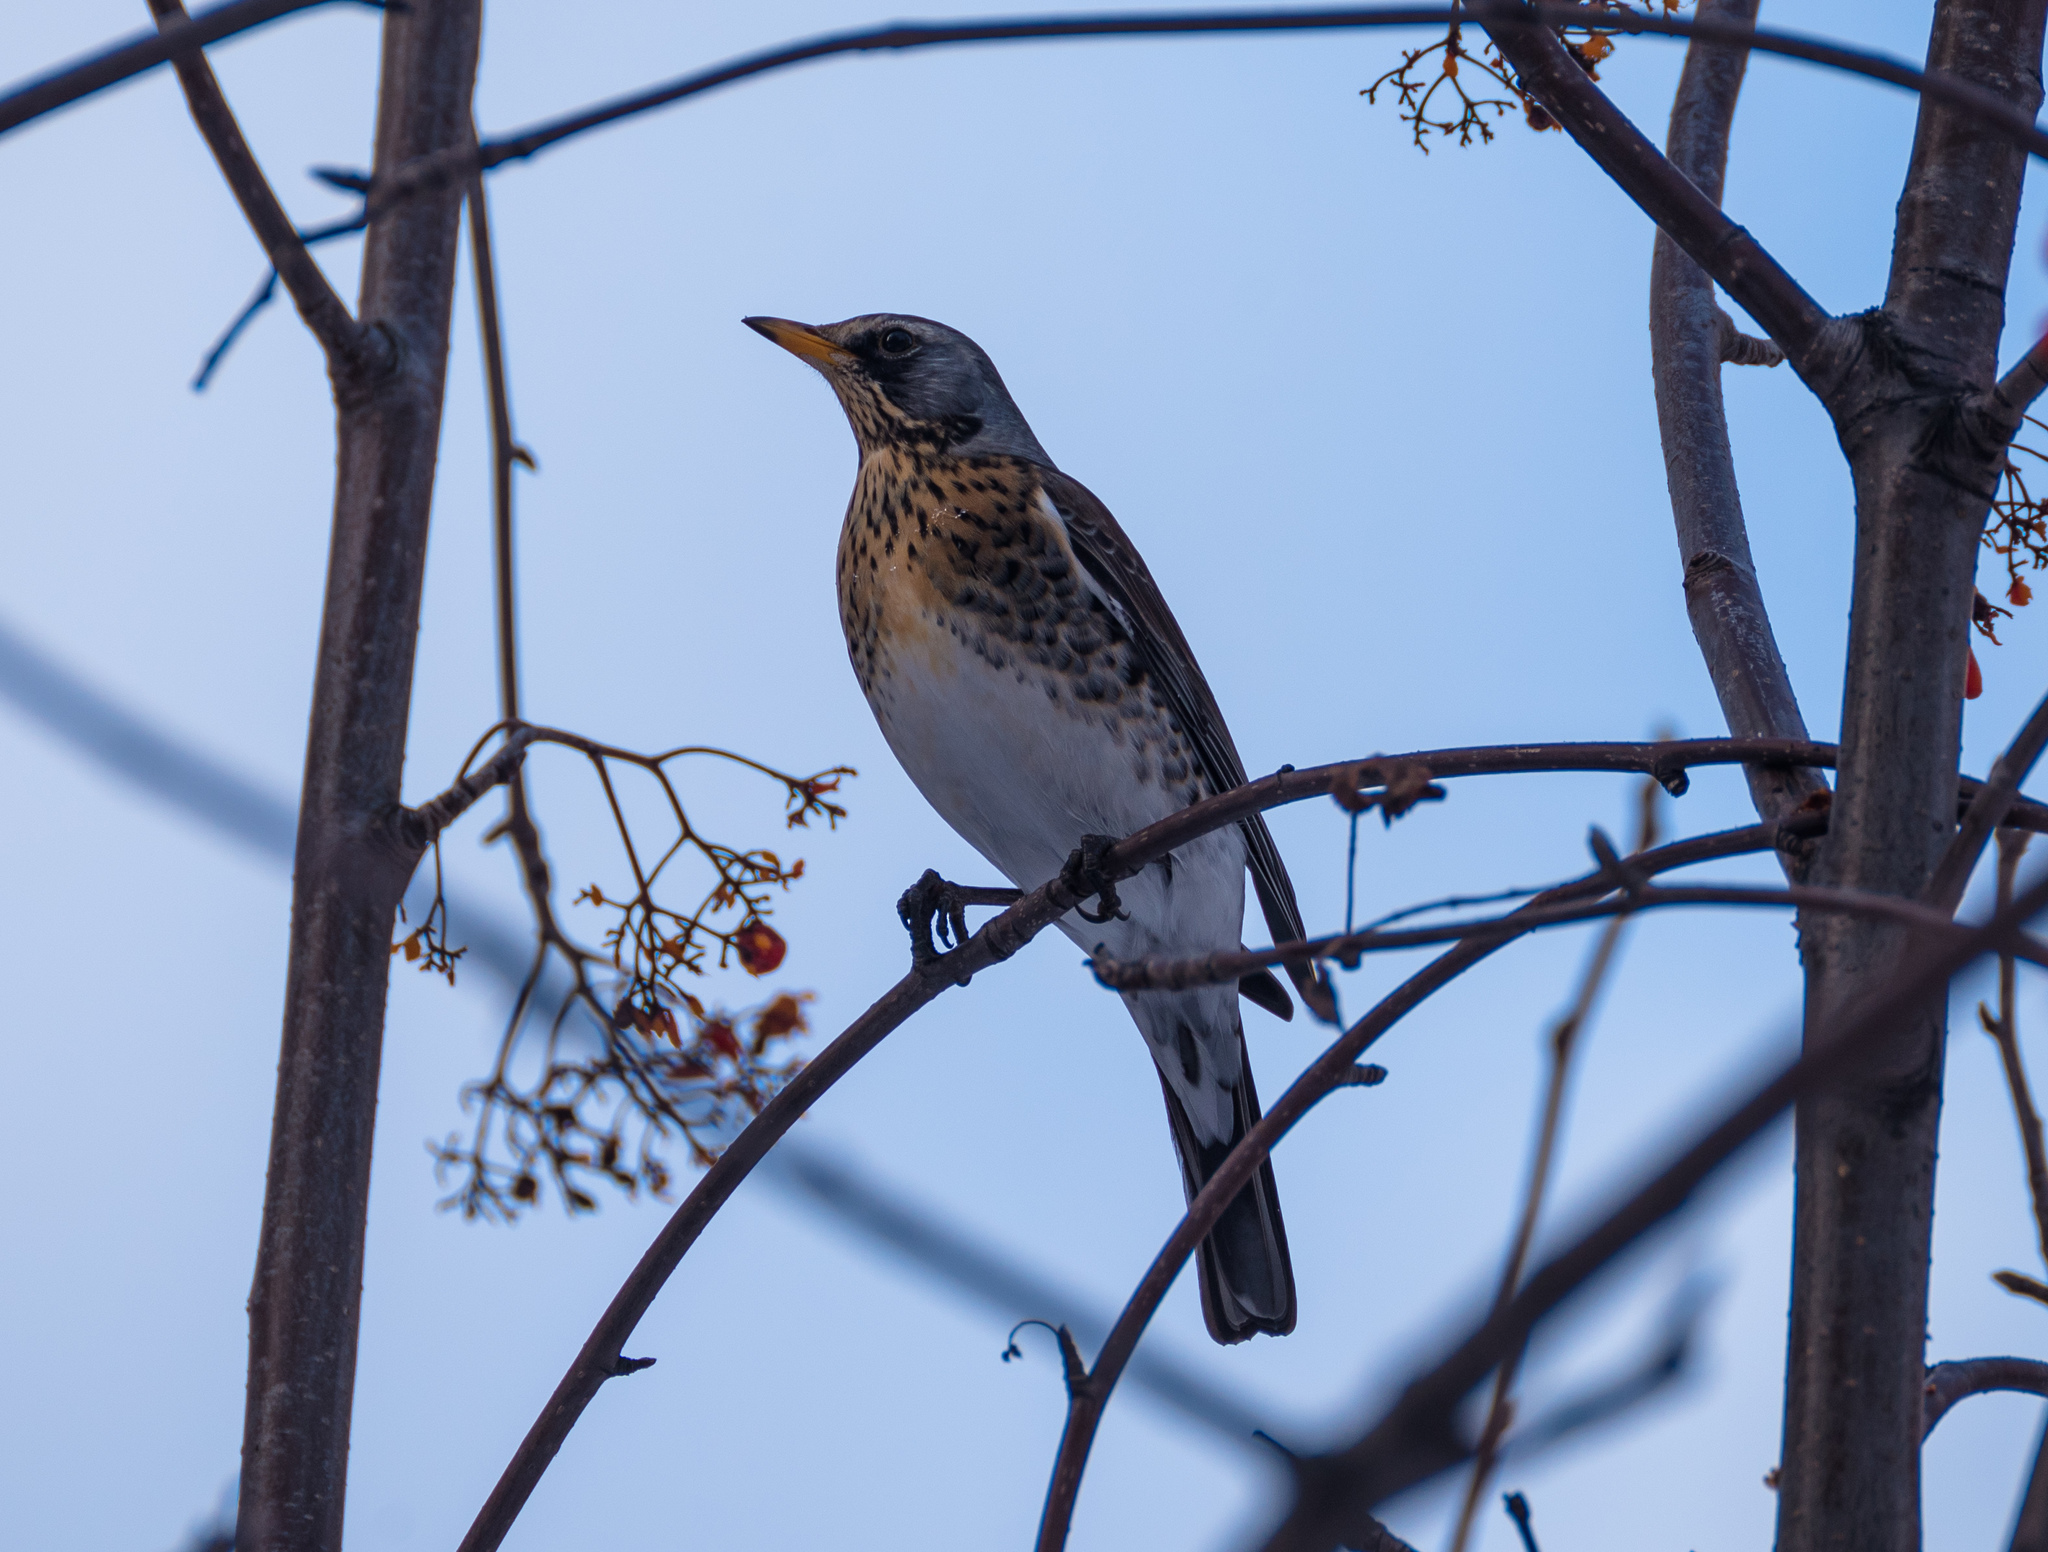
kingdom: Animalia
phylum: Chordata
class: Aves
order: Passeriformes
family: Turdidae
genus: Turdus
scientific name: Turdus pilaris
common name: Fieldfare
